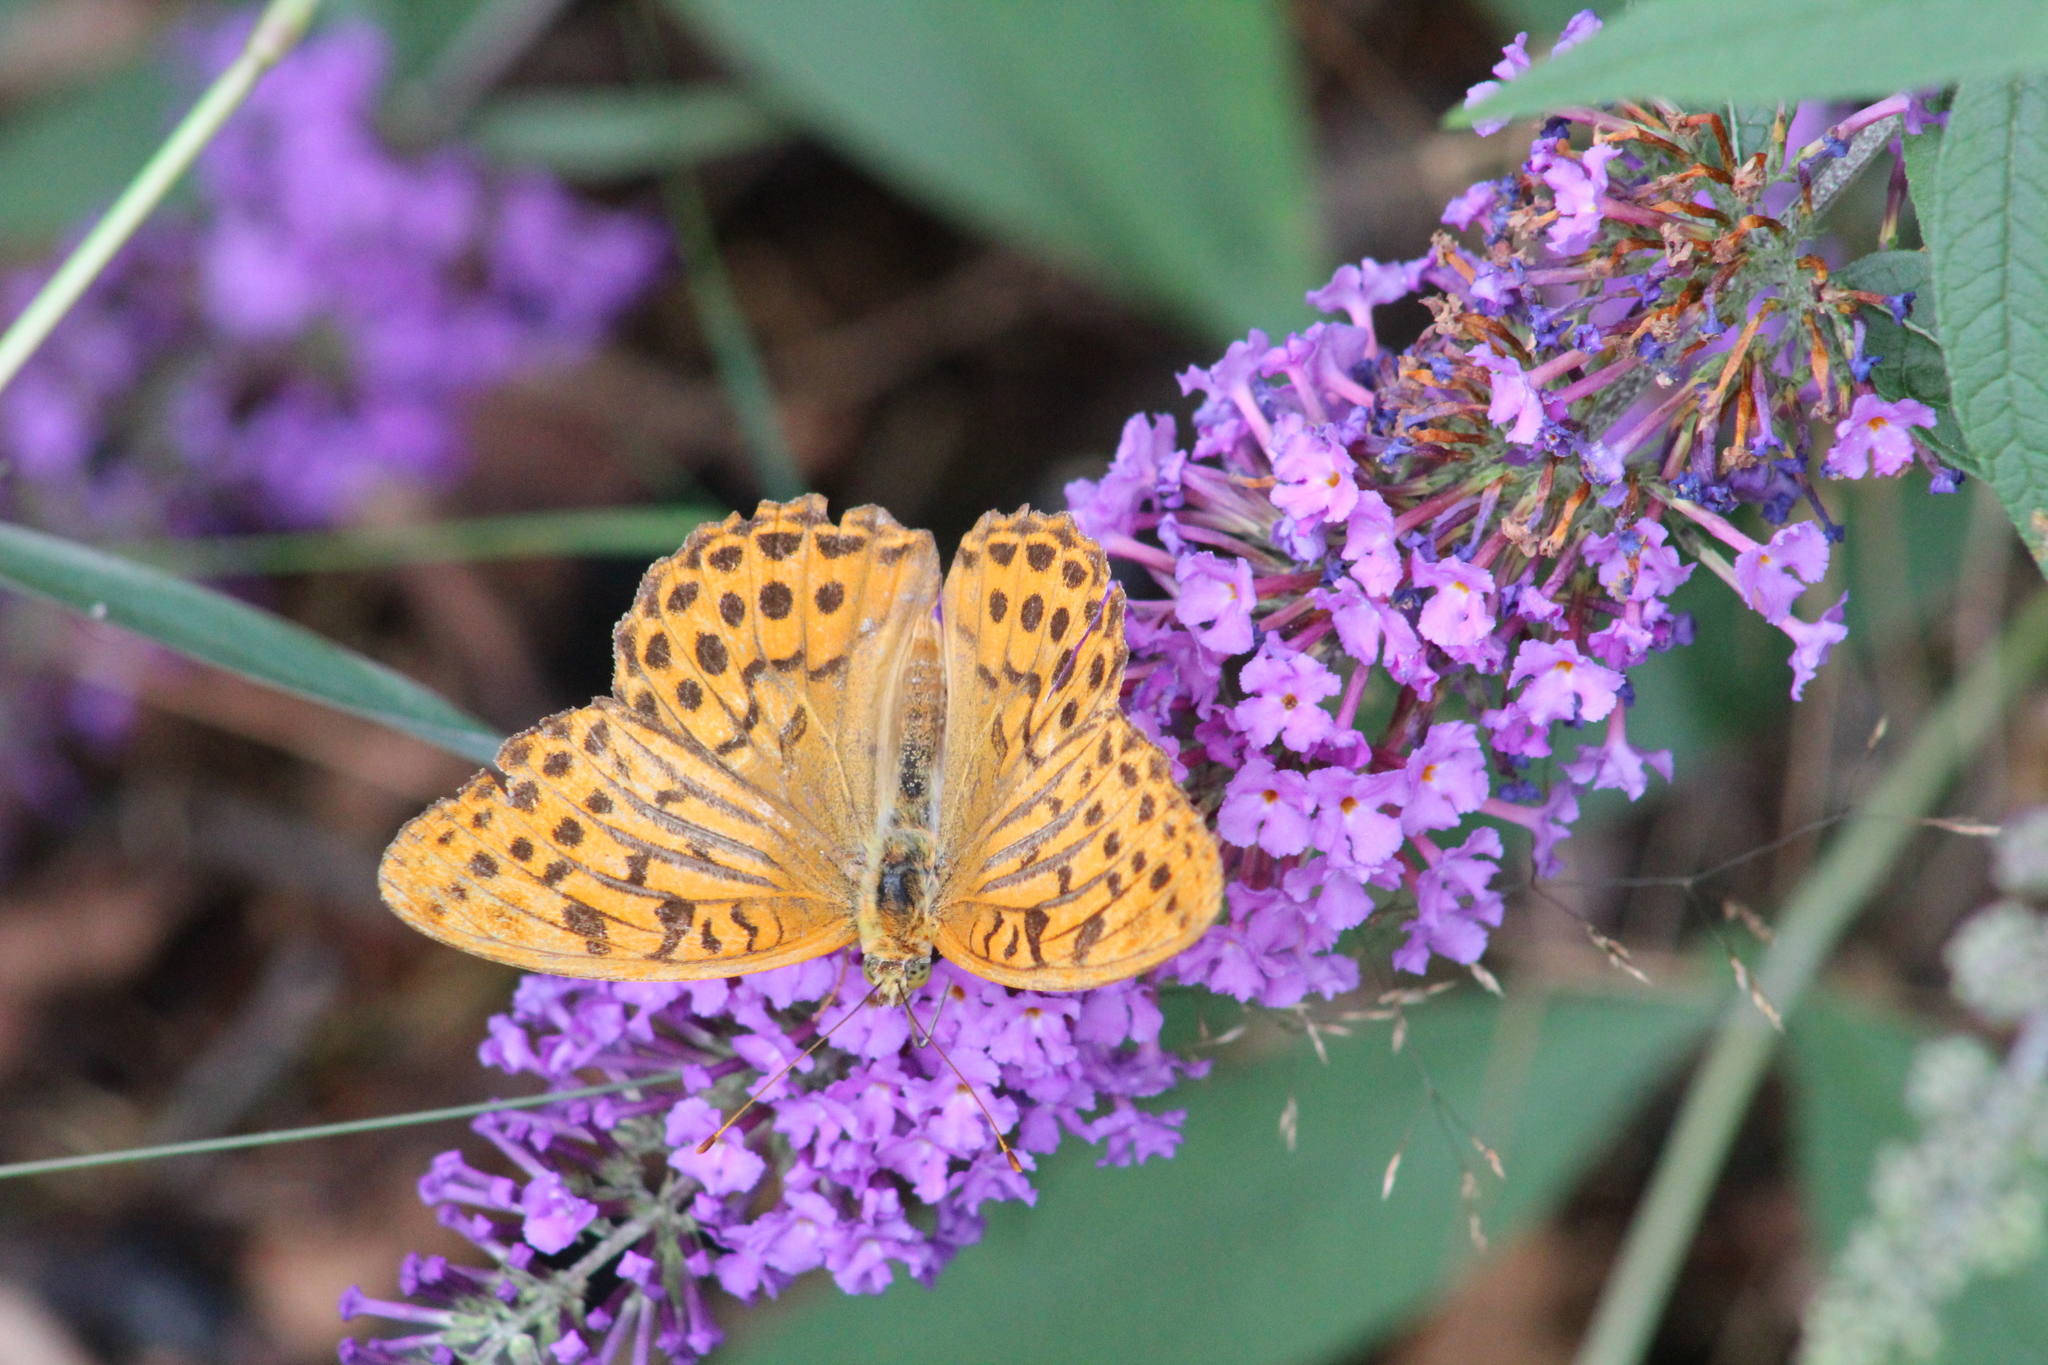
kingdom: Animalia
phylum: Arthropoda
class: Insecta
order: Lepidoptera
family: Nymphalidae
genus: Argynnis
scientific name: Argynnis paphia
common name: Silver-washed fritillary
